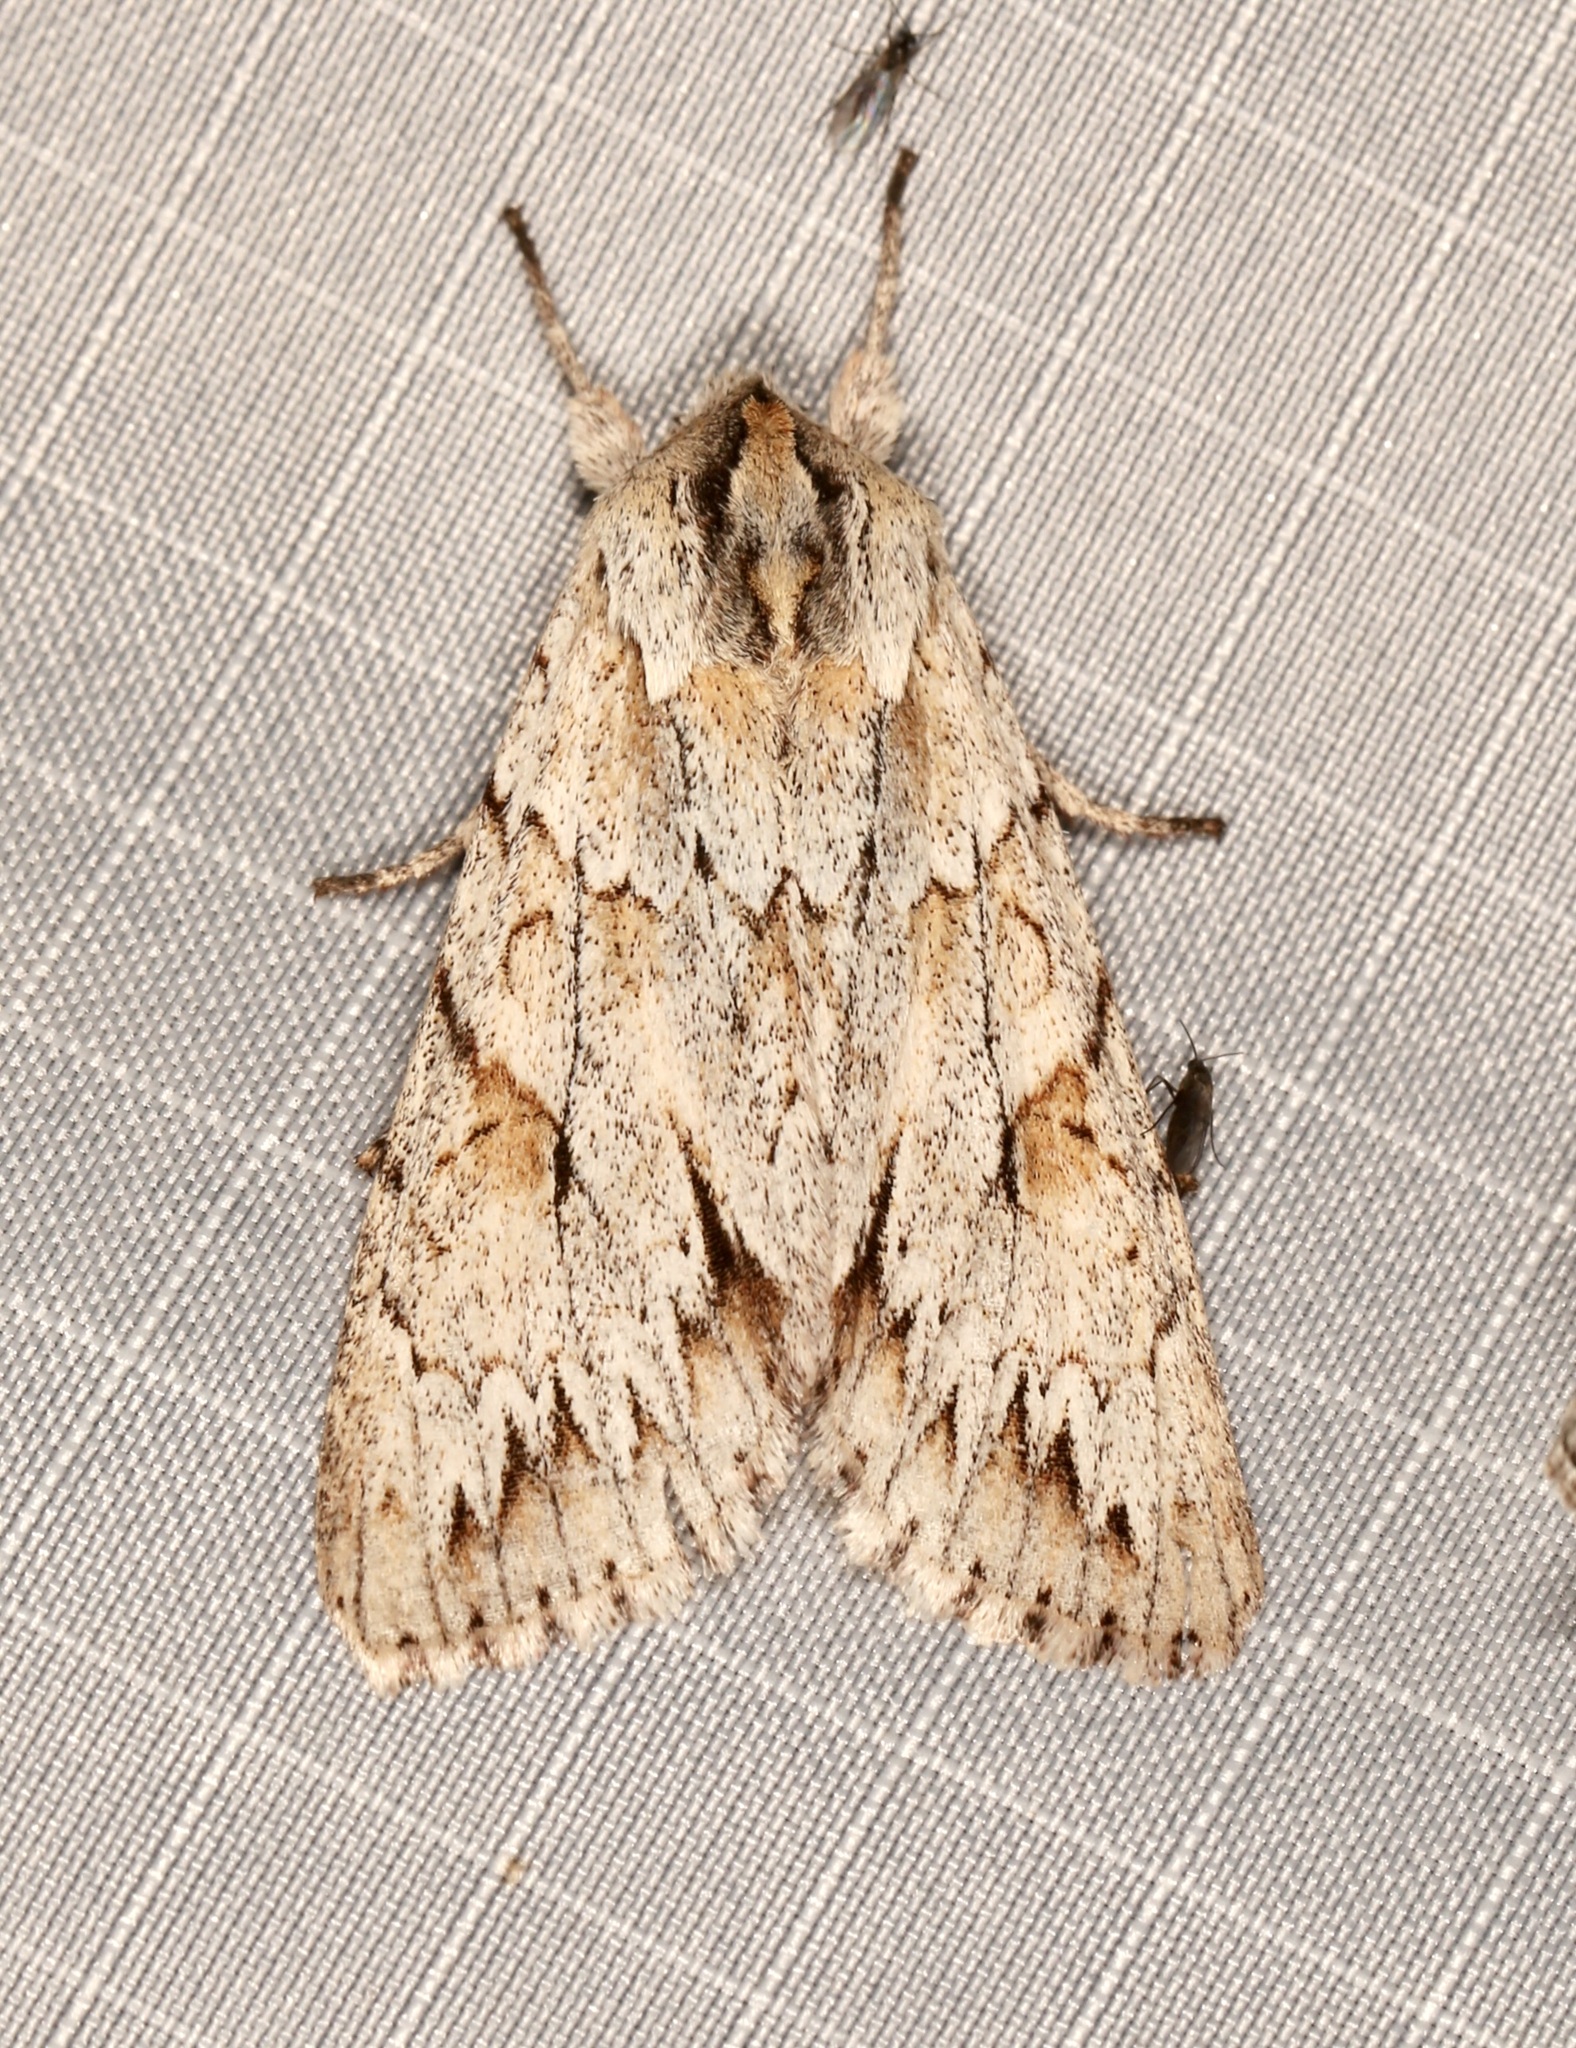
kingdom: Animalia
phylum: Arthropoda
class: Insecta
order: Lepidoptera
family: Noctuidae
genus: Andropolia
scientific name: Andropolia theodori
